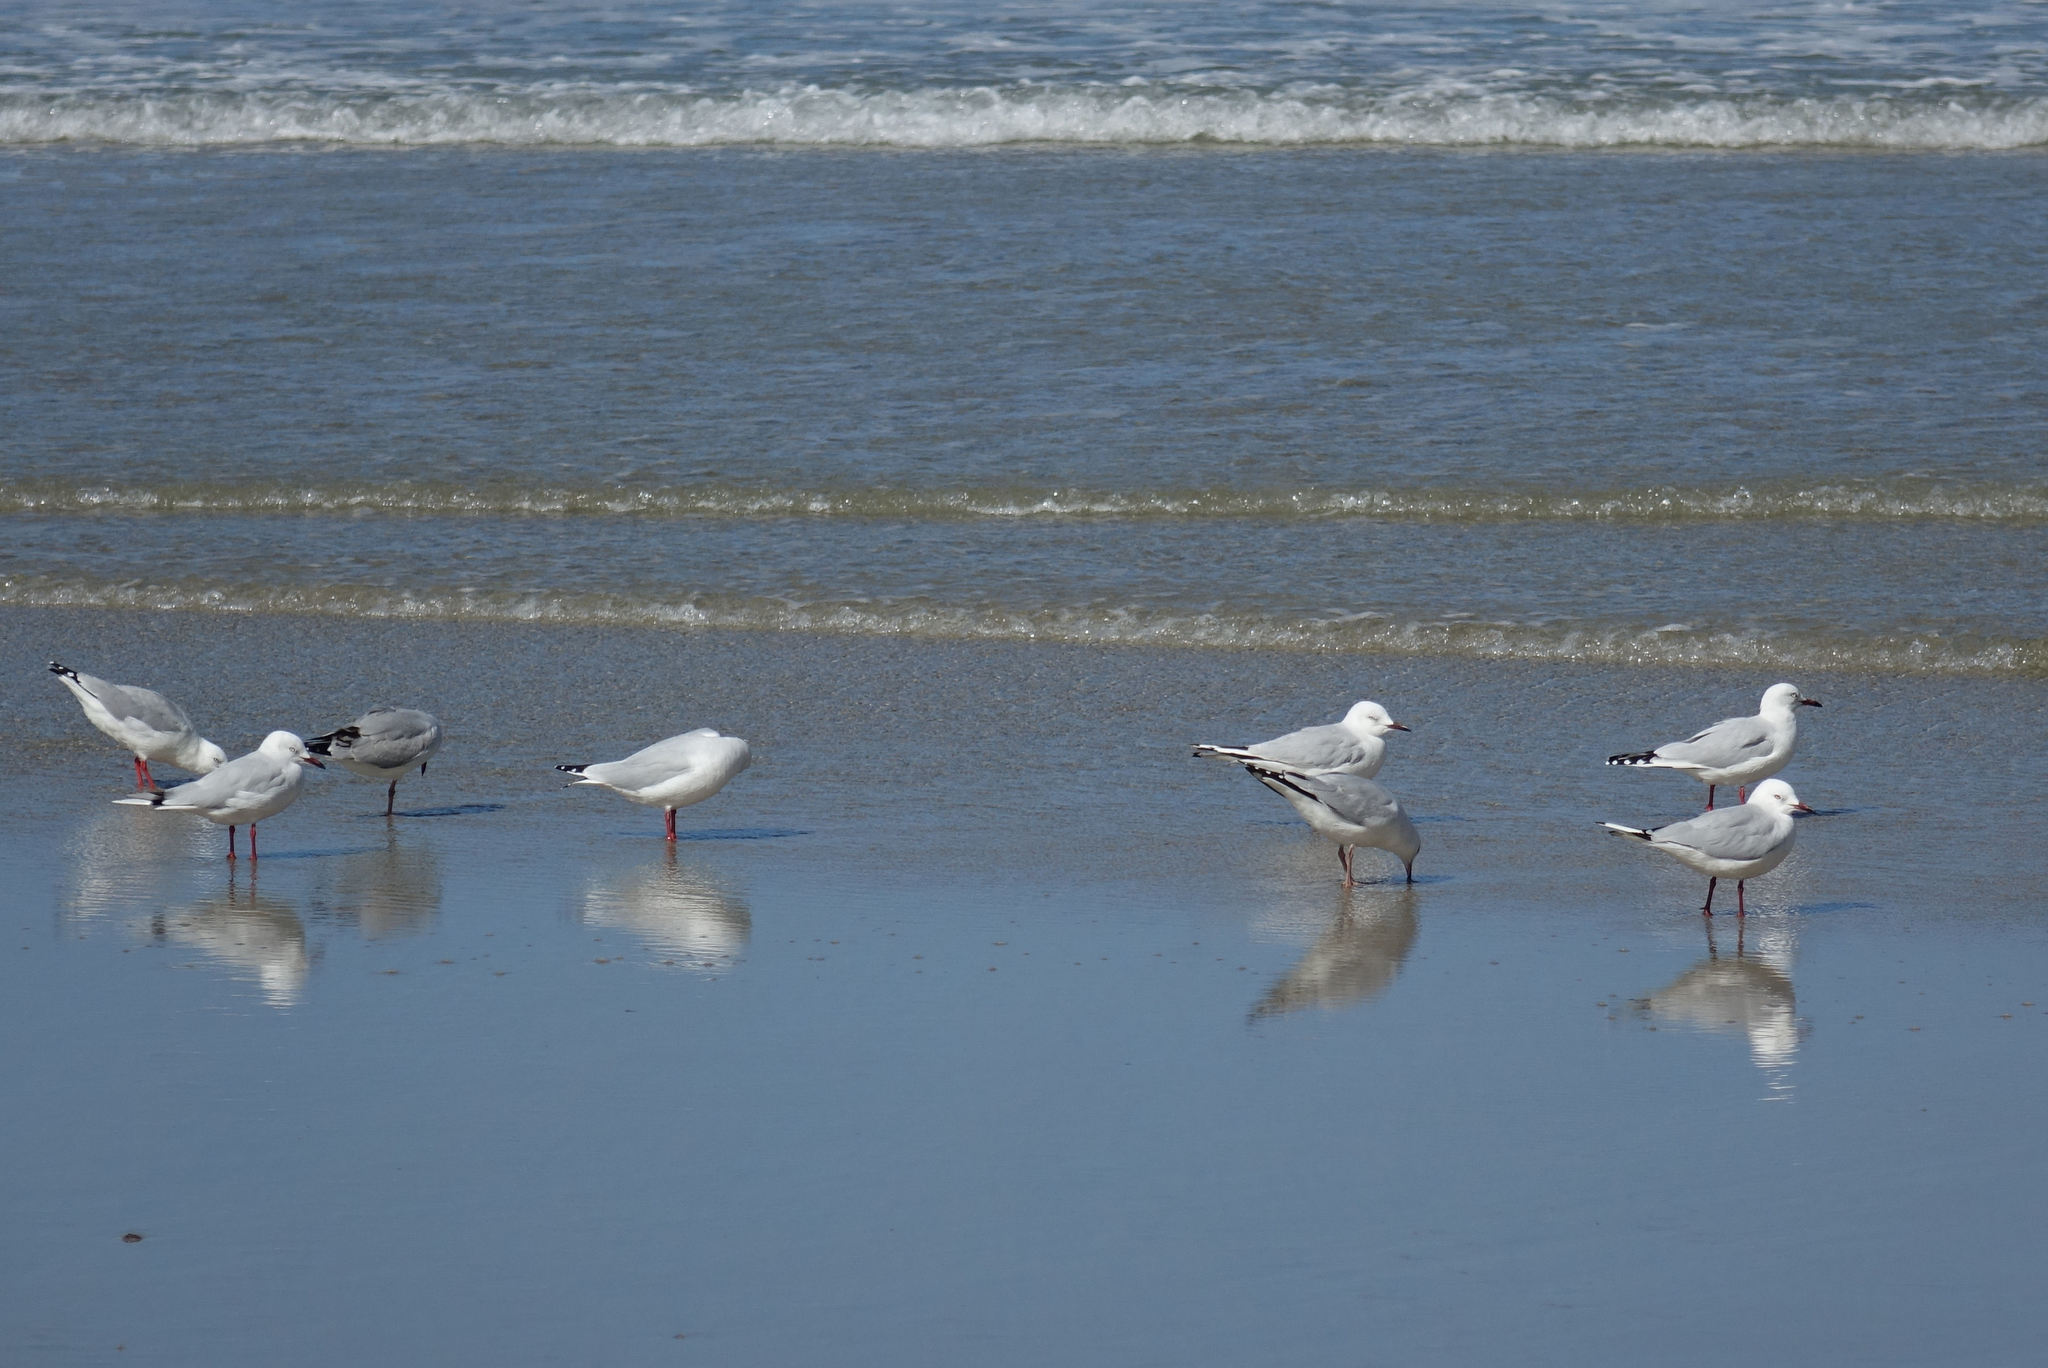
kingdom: Animalia
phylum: Chordata
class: Aves
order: Charadriiformes
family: Laridae
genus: Chroicocephalus
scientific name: Chroicocephalus novaehollandiae
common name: Silver gull
